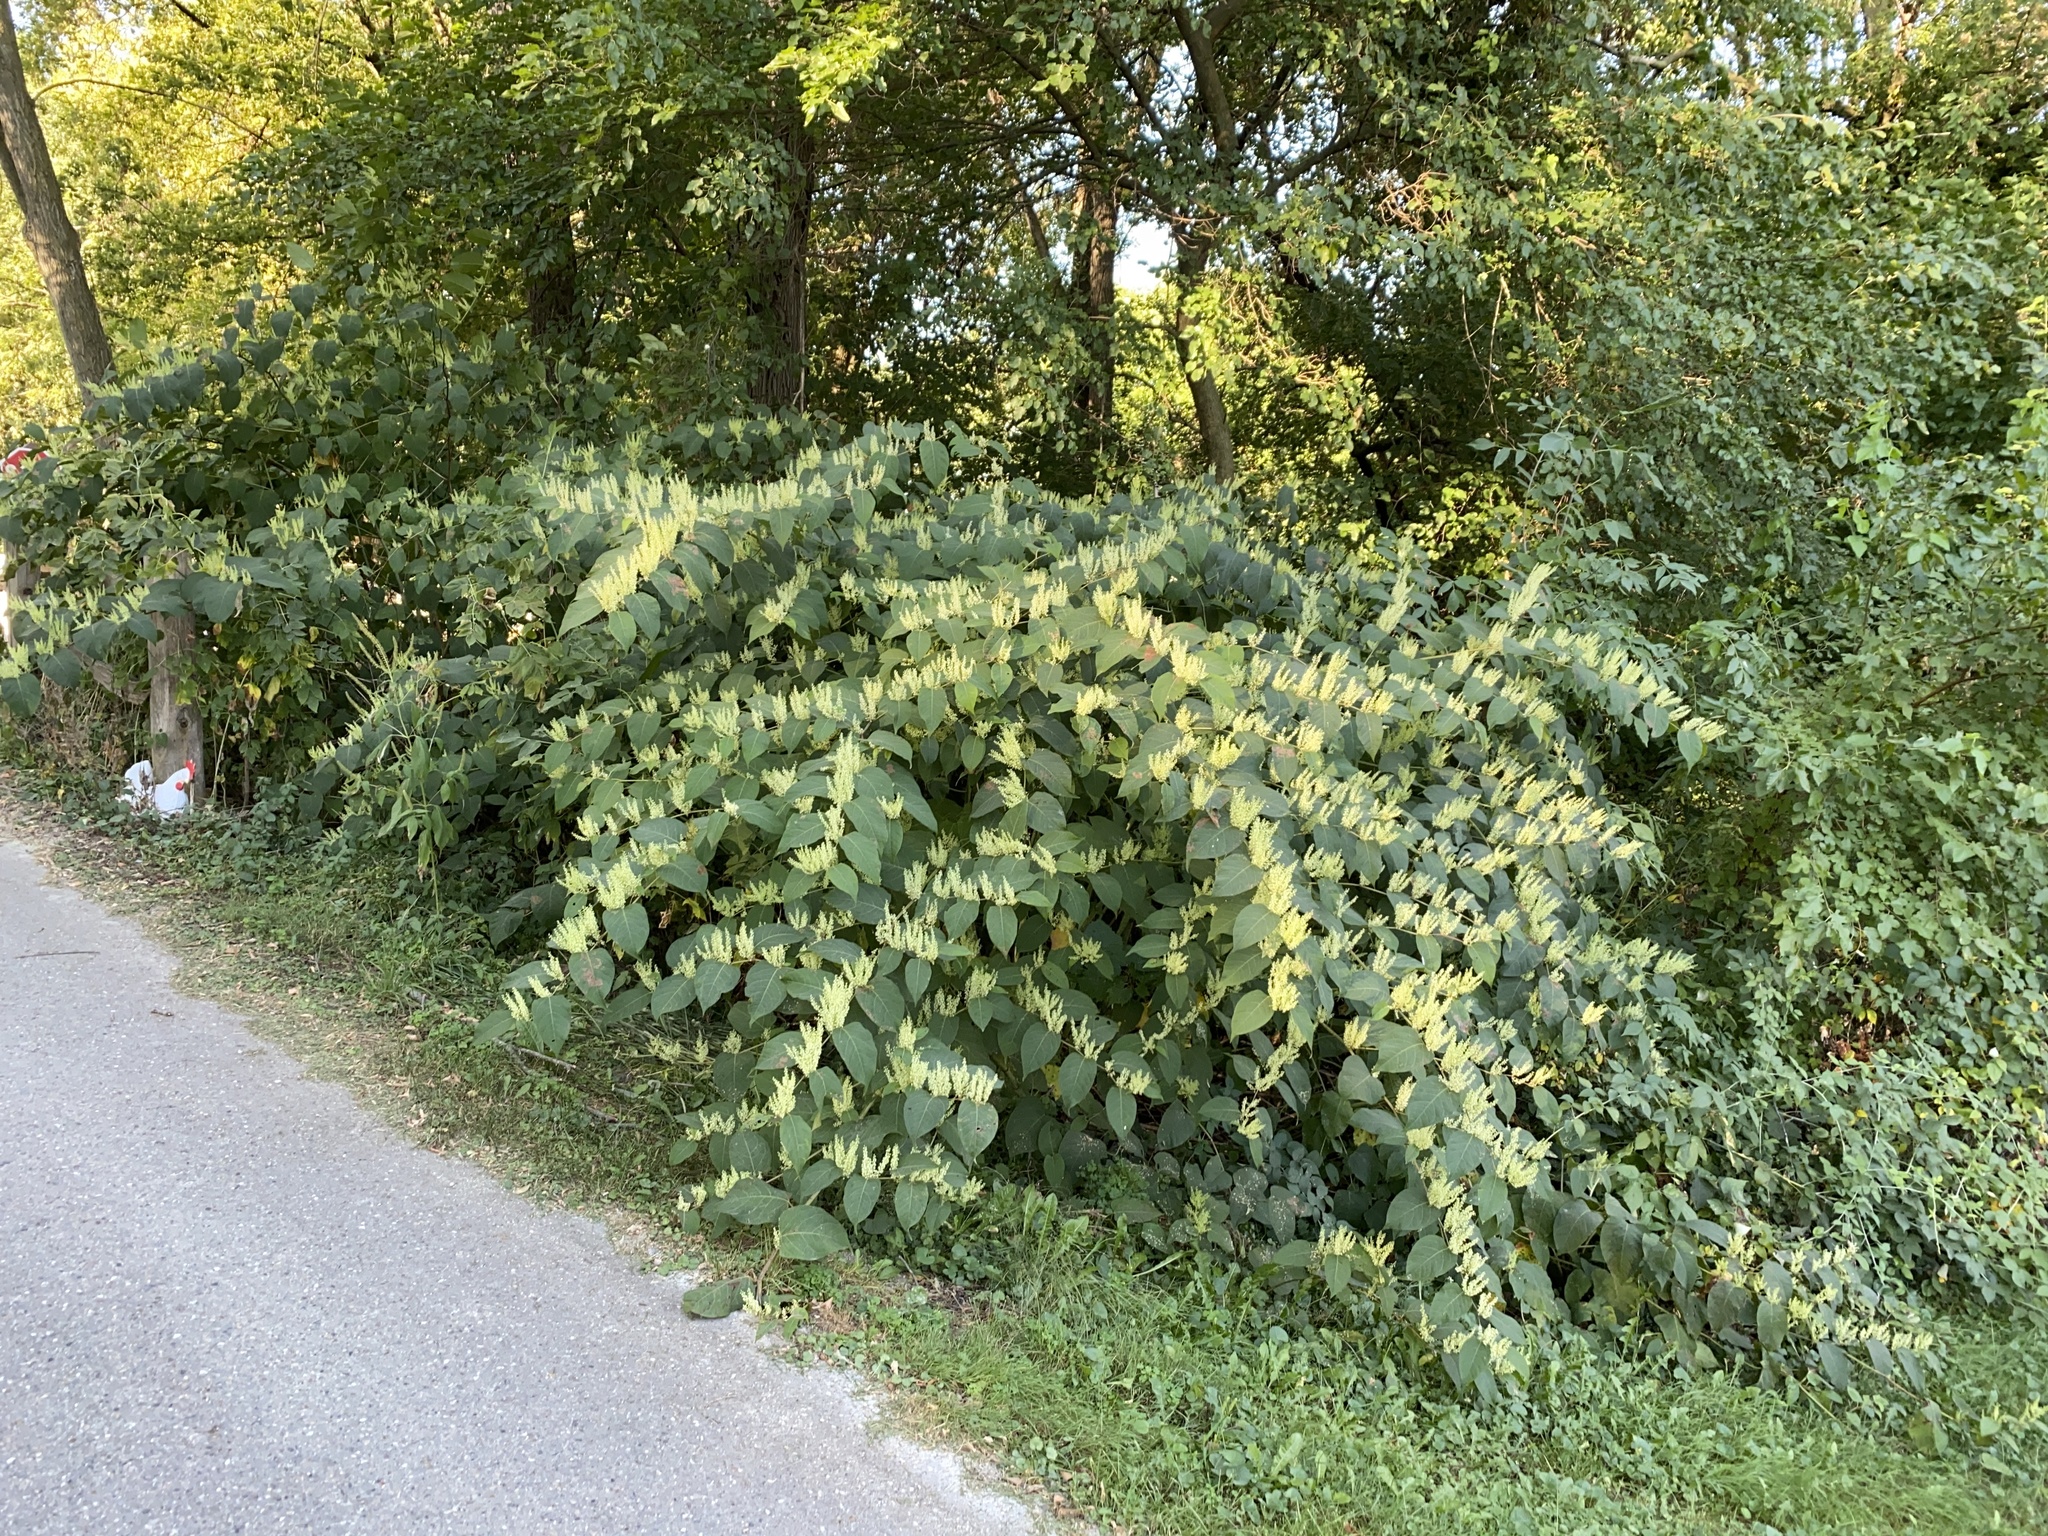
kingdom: Plantae
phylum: Tracheophyta
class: Magnoliopsida
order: Caryophyllales
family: Polygonaceae
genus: Reynoutria
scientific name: Reynoutria japonica
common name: Japanese knotweed
